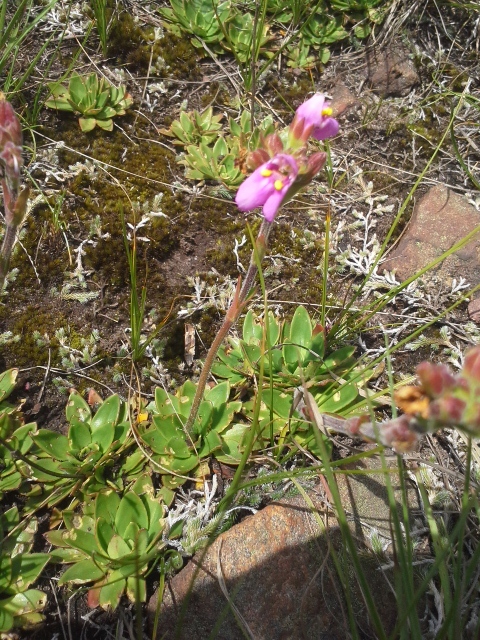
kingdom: Plantae
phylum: Tracheophyta
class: Magnoliopsida
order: Lamiales
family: Linderniaceae
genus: Craterostigma
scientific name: Craterostigma wilmsii
